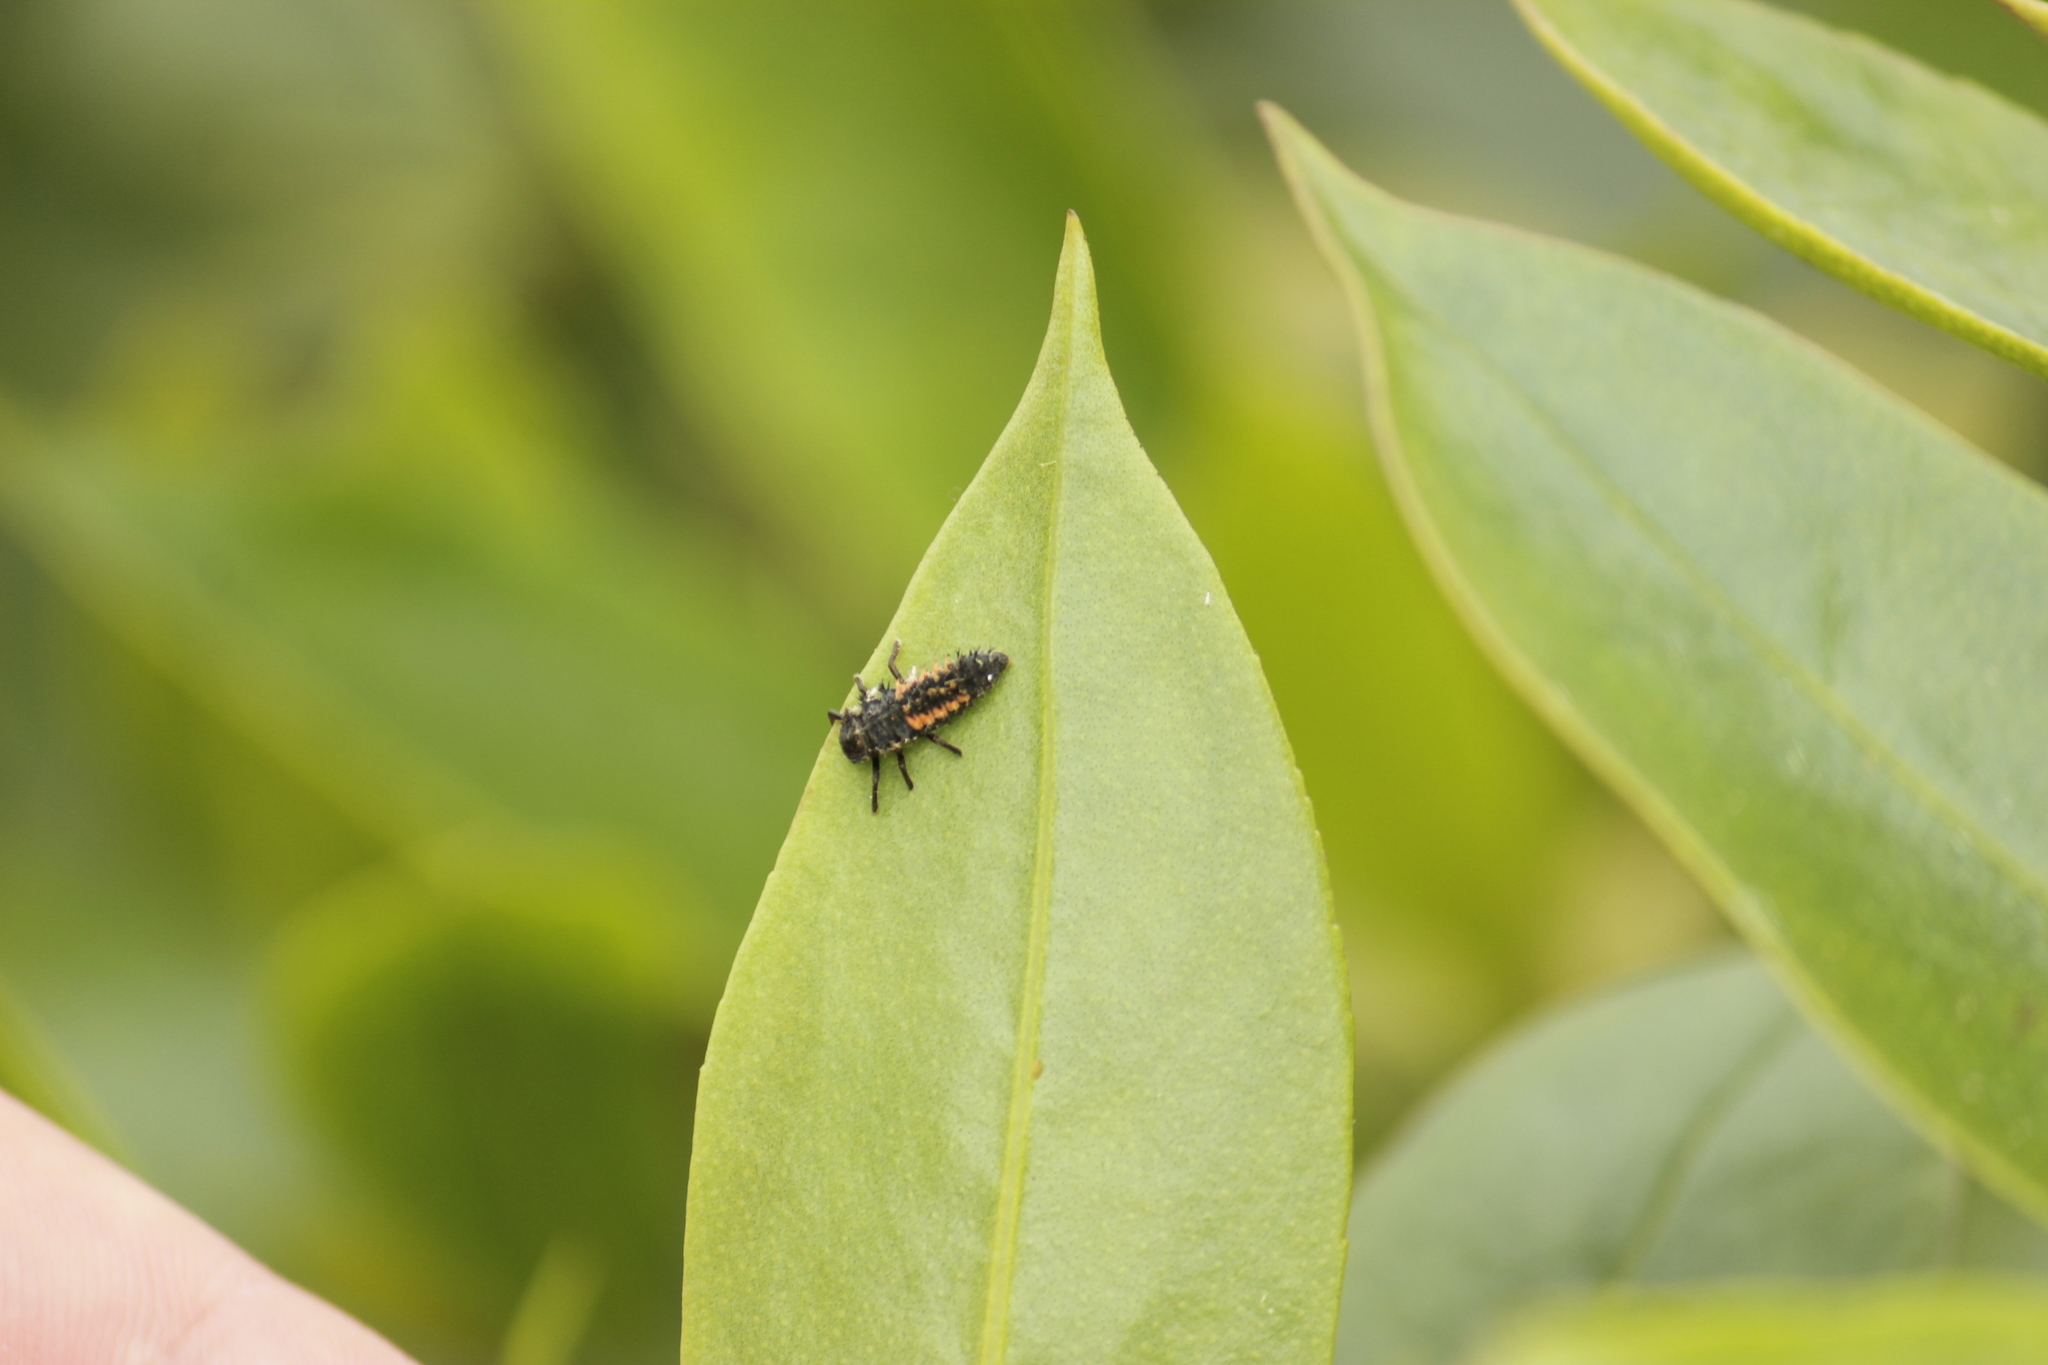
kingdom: Animalia
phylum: Arthropoda
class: Insecta
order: Coleoptera
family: Coccinellidae
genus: Harmonia
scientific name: Harmonia axyridis
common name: Harlequin ladybird
